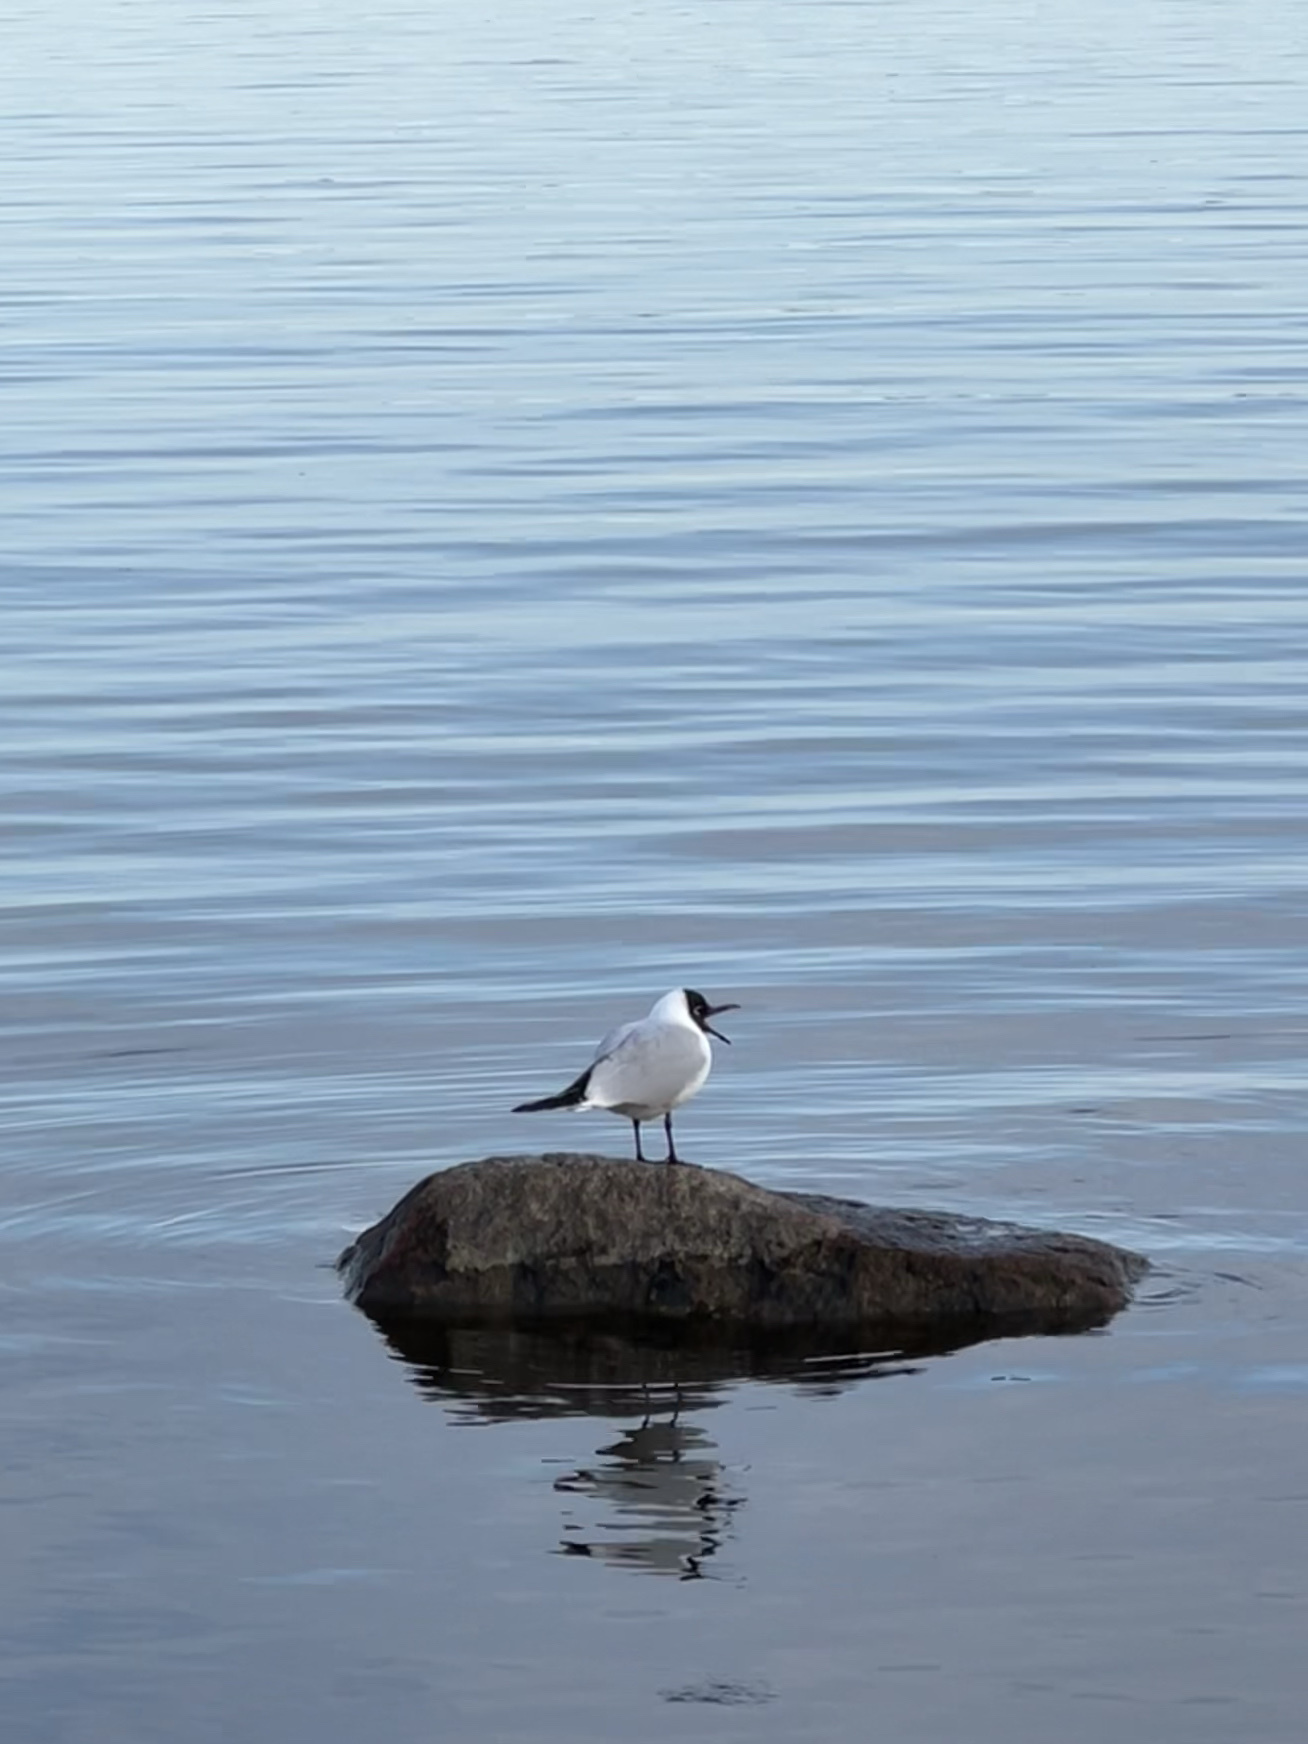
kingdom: Animalia
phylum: Chordata
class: Aves
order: Charadriiformes
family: Laridae
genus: Chroicocephalus
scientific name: Chroicocephalus ridibundus
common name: Black-headed gull
